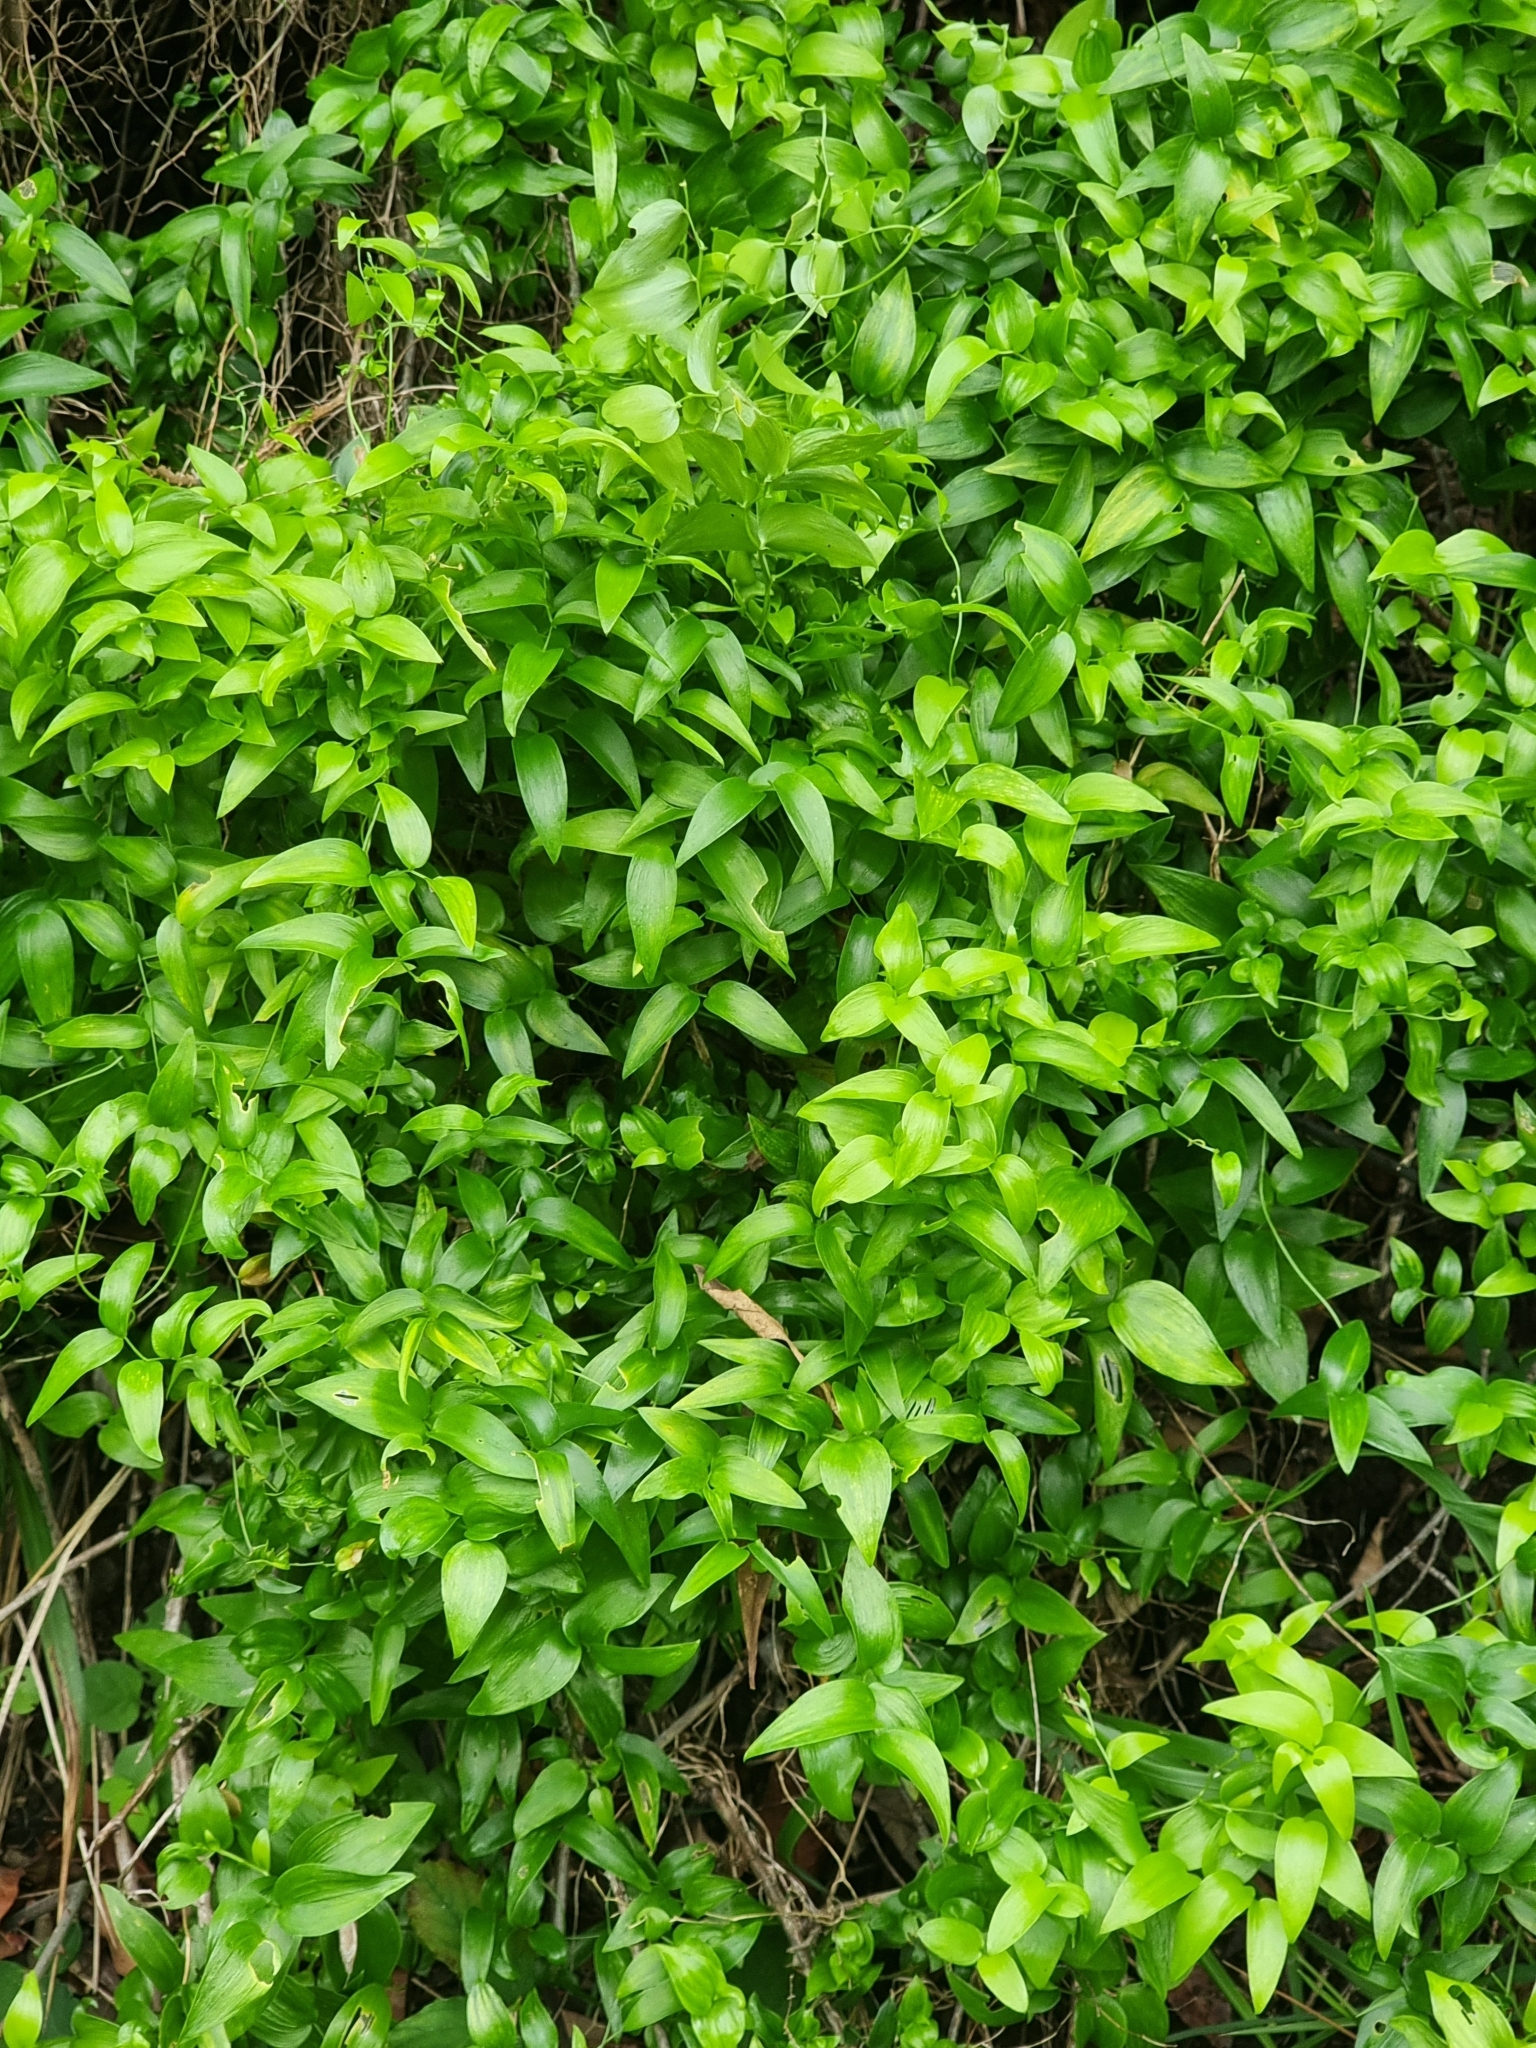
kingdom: Plantae
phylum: Tracheophyta
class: Liliopsida
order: Asparagales
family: Asparagaceae
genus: Asparagus
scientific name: Asparagus asparagoides
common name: African asparagus fern
